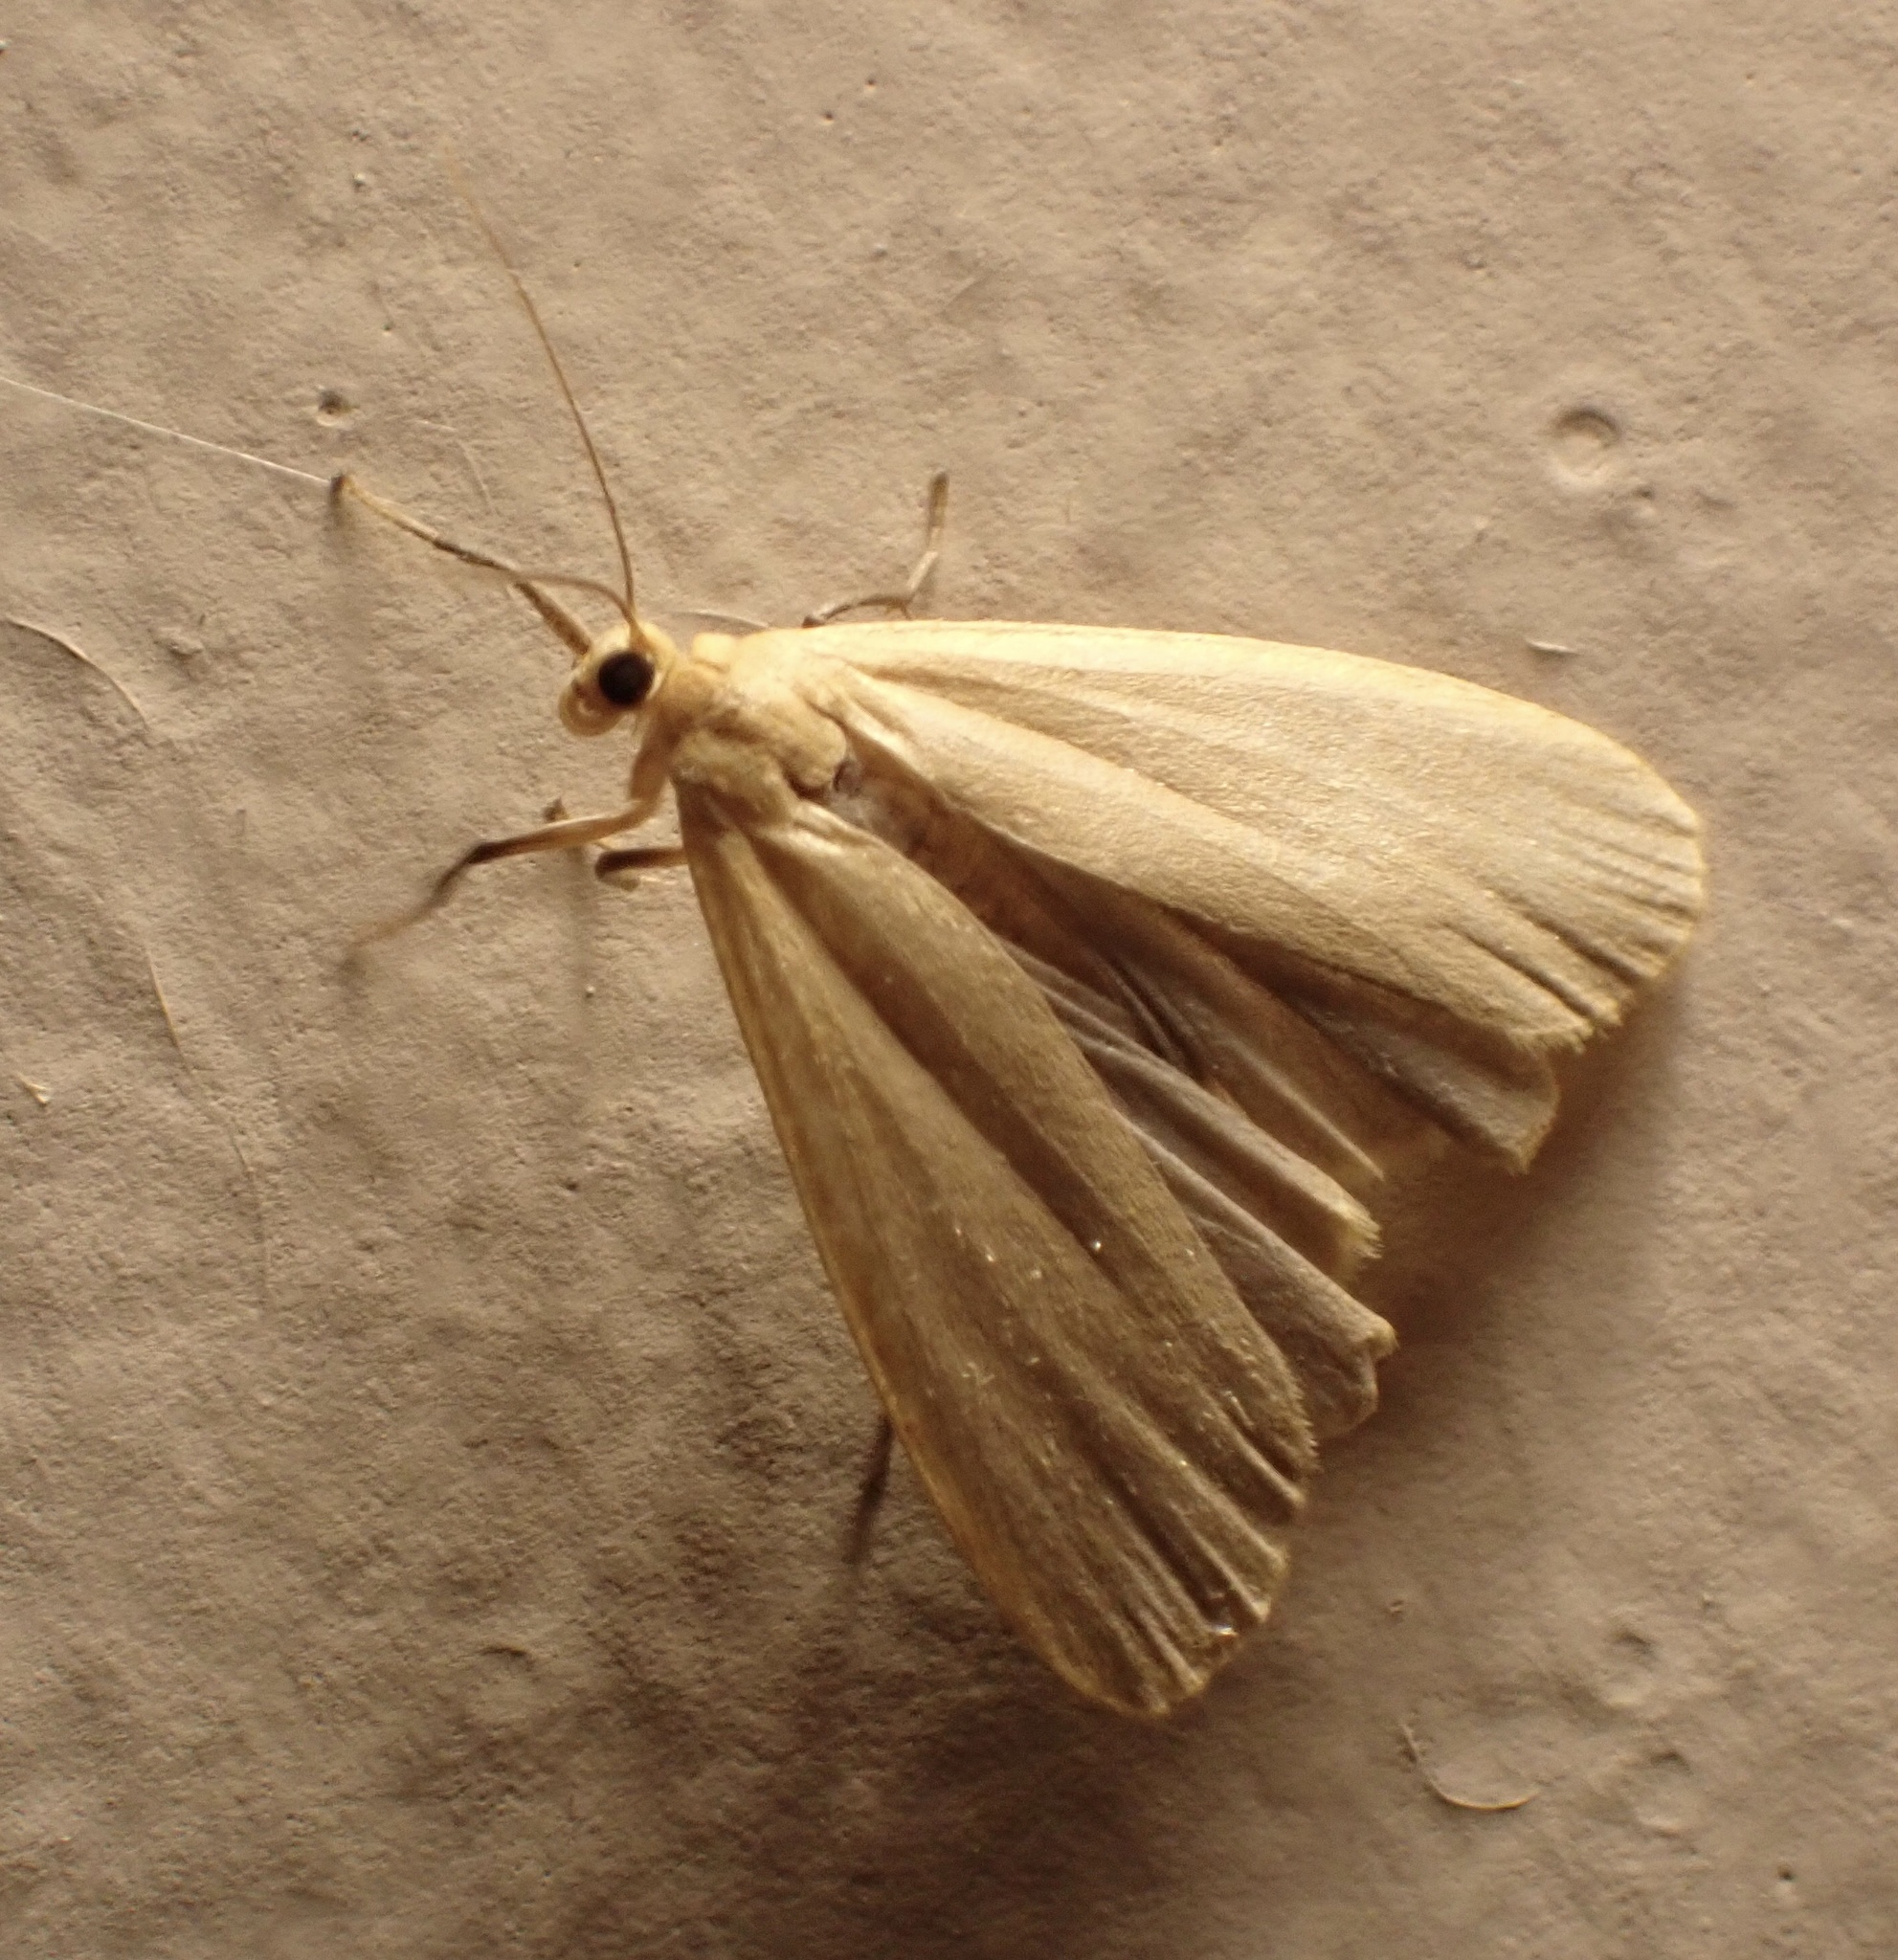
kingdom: Animalia
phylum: Arthropoda
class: Insecta
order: Lepidoptera
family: Erebidae
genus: Katha
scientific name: Katha depressa
